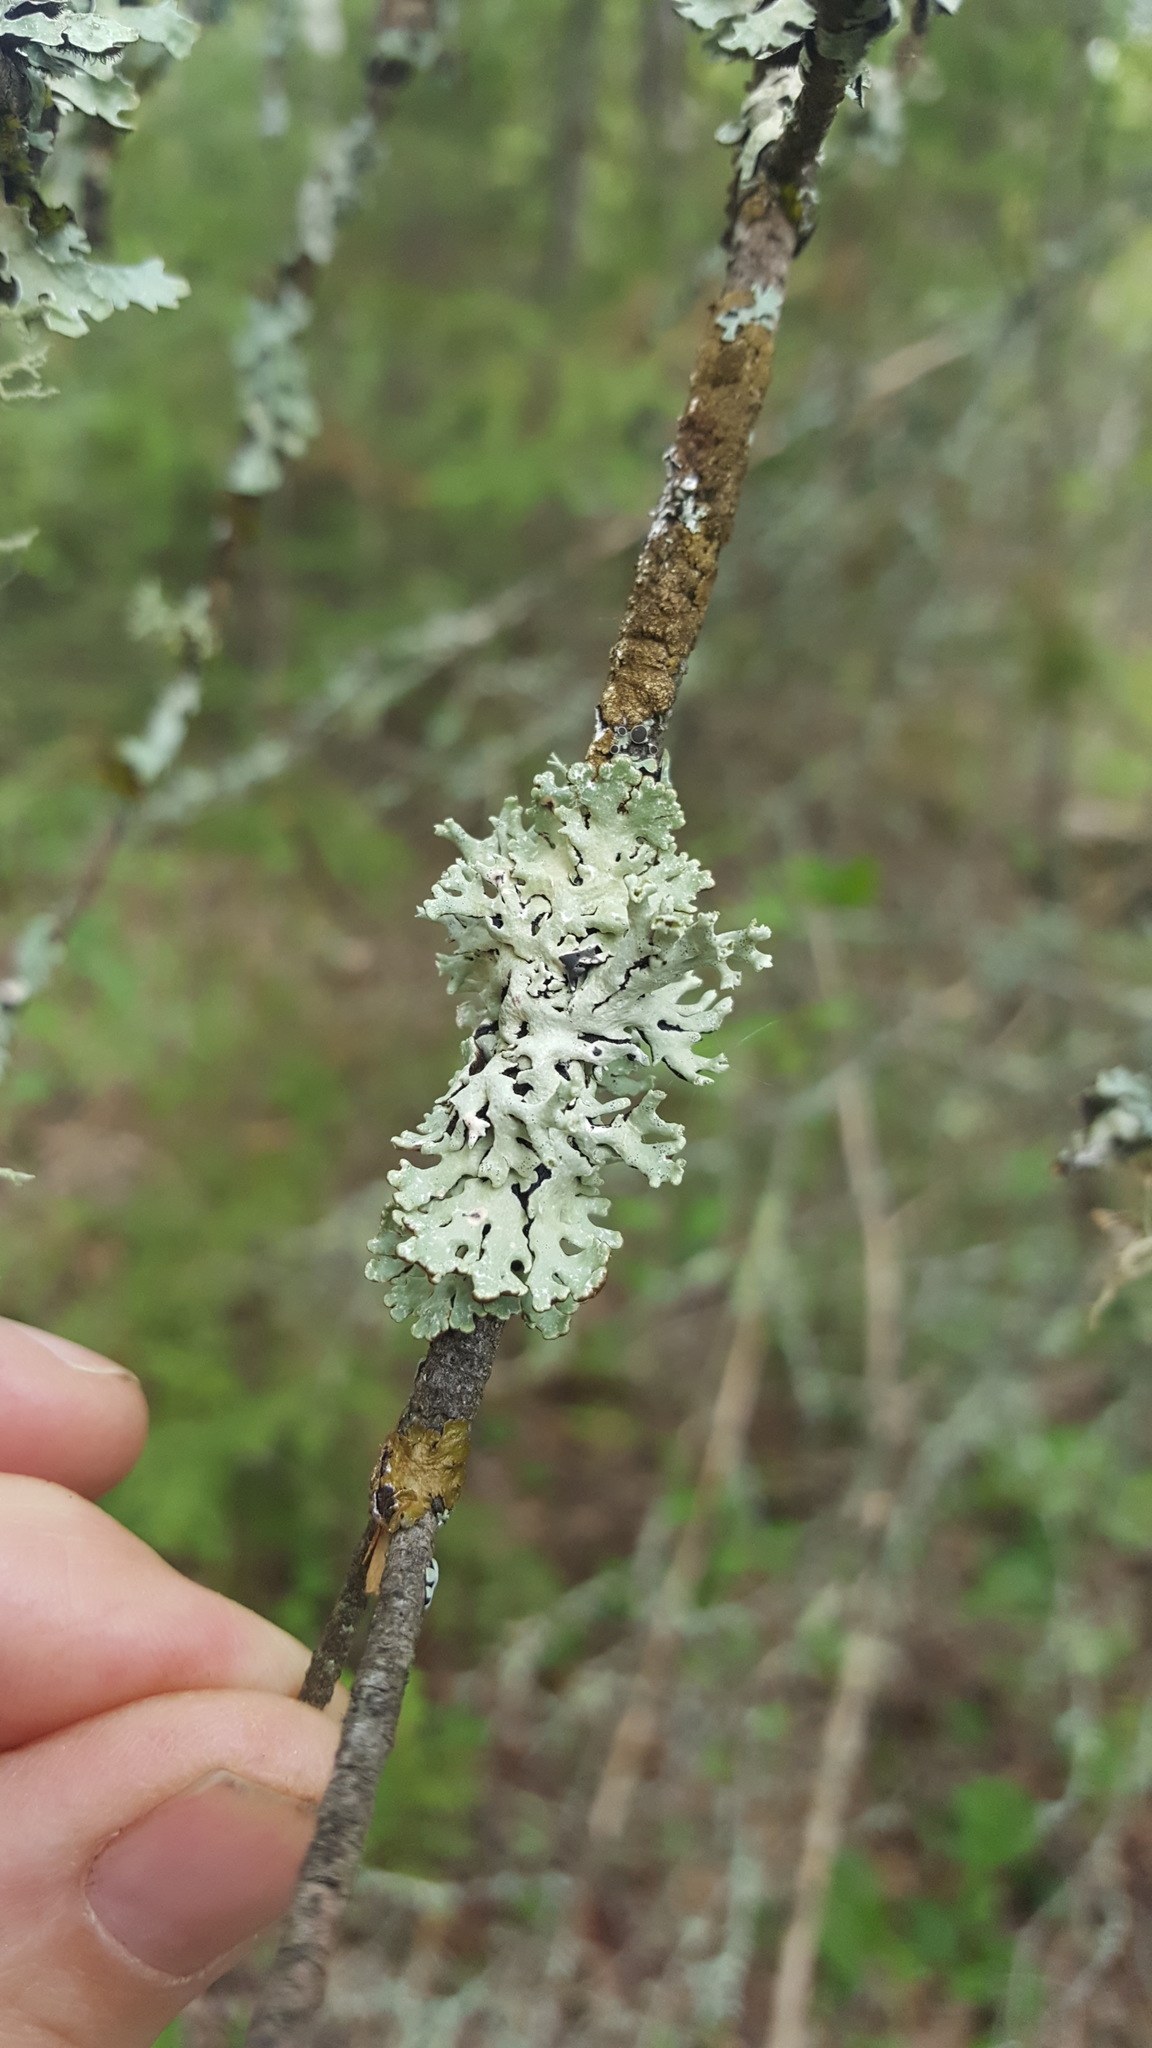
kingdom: Fungi
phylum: Ascomycota
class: Lecanoromycetes
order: Lecanorales
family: Parmeliaceae
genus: Hypogymnia
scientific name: Hypogymnia physodes
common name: Dark crottle
